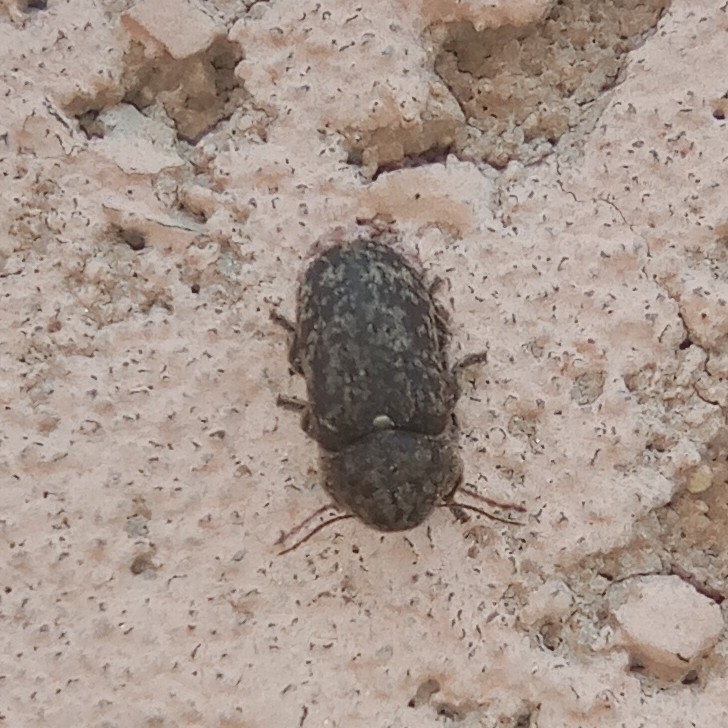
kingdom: Animalia
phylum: Arthropoda
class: Insecta
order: Coleoptera
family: Anobiidae
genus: Xestobium
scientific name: Xestobium rufovillosum
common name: Death-watch beetle
